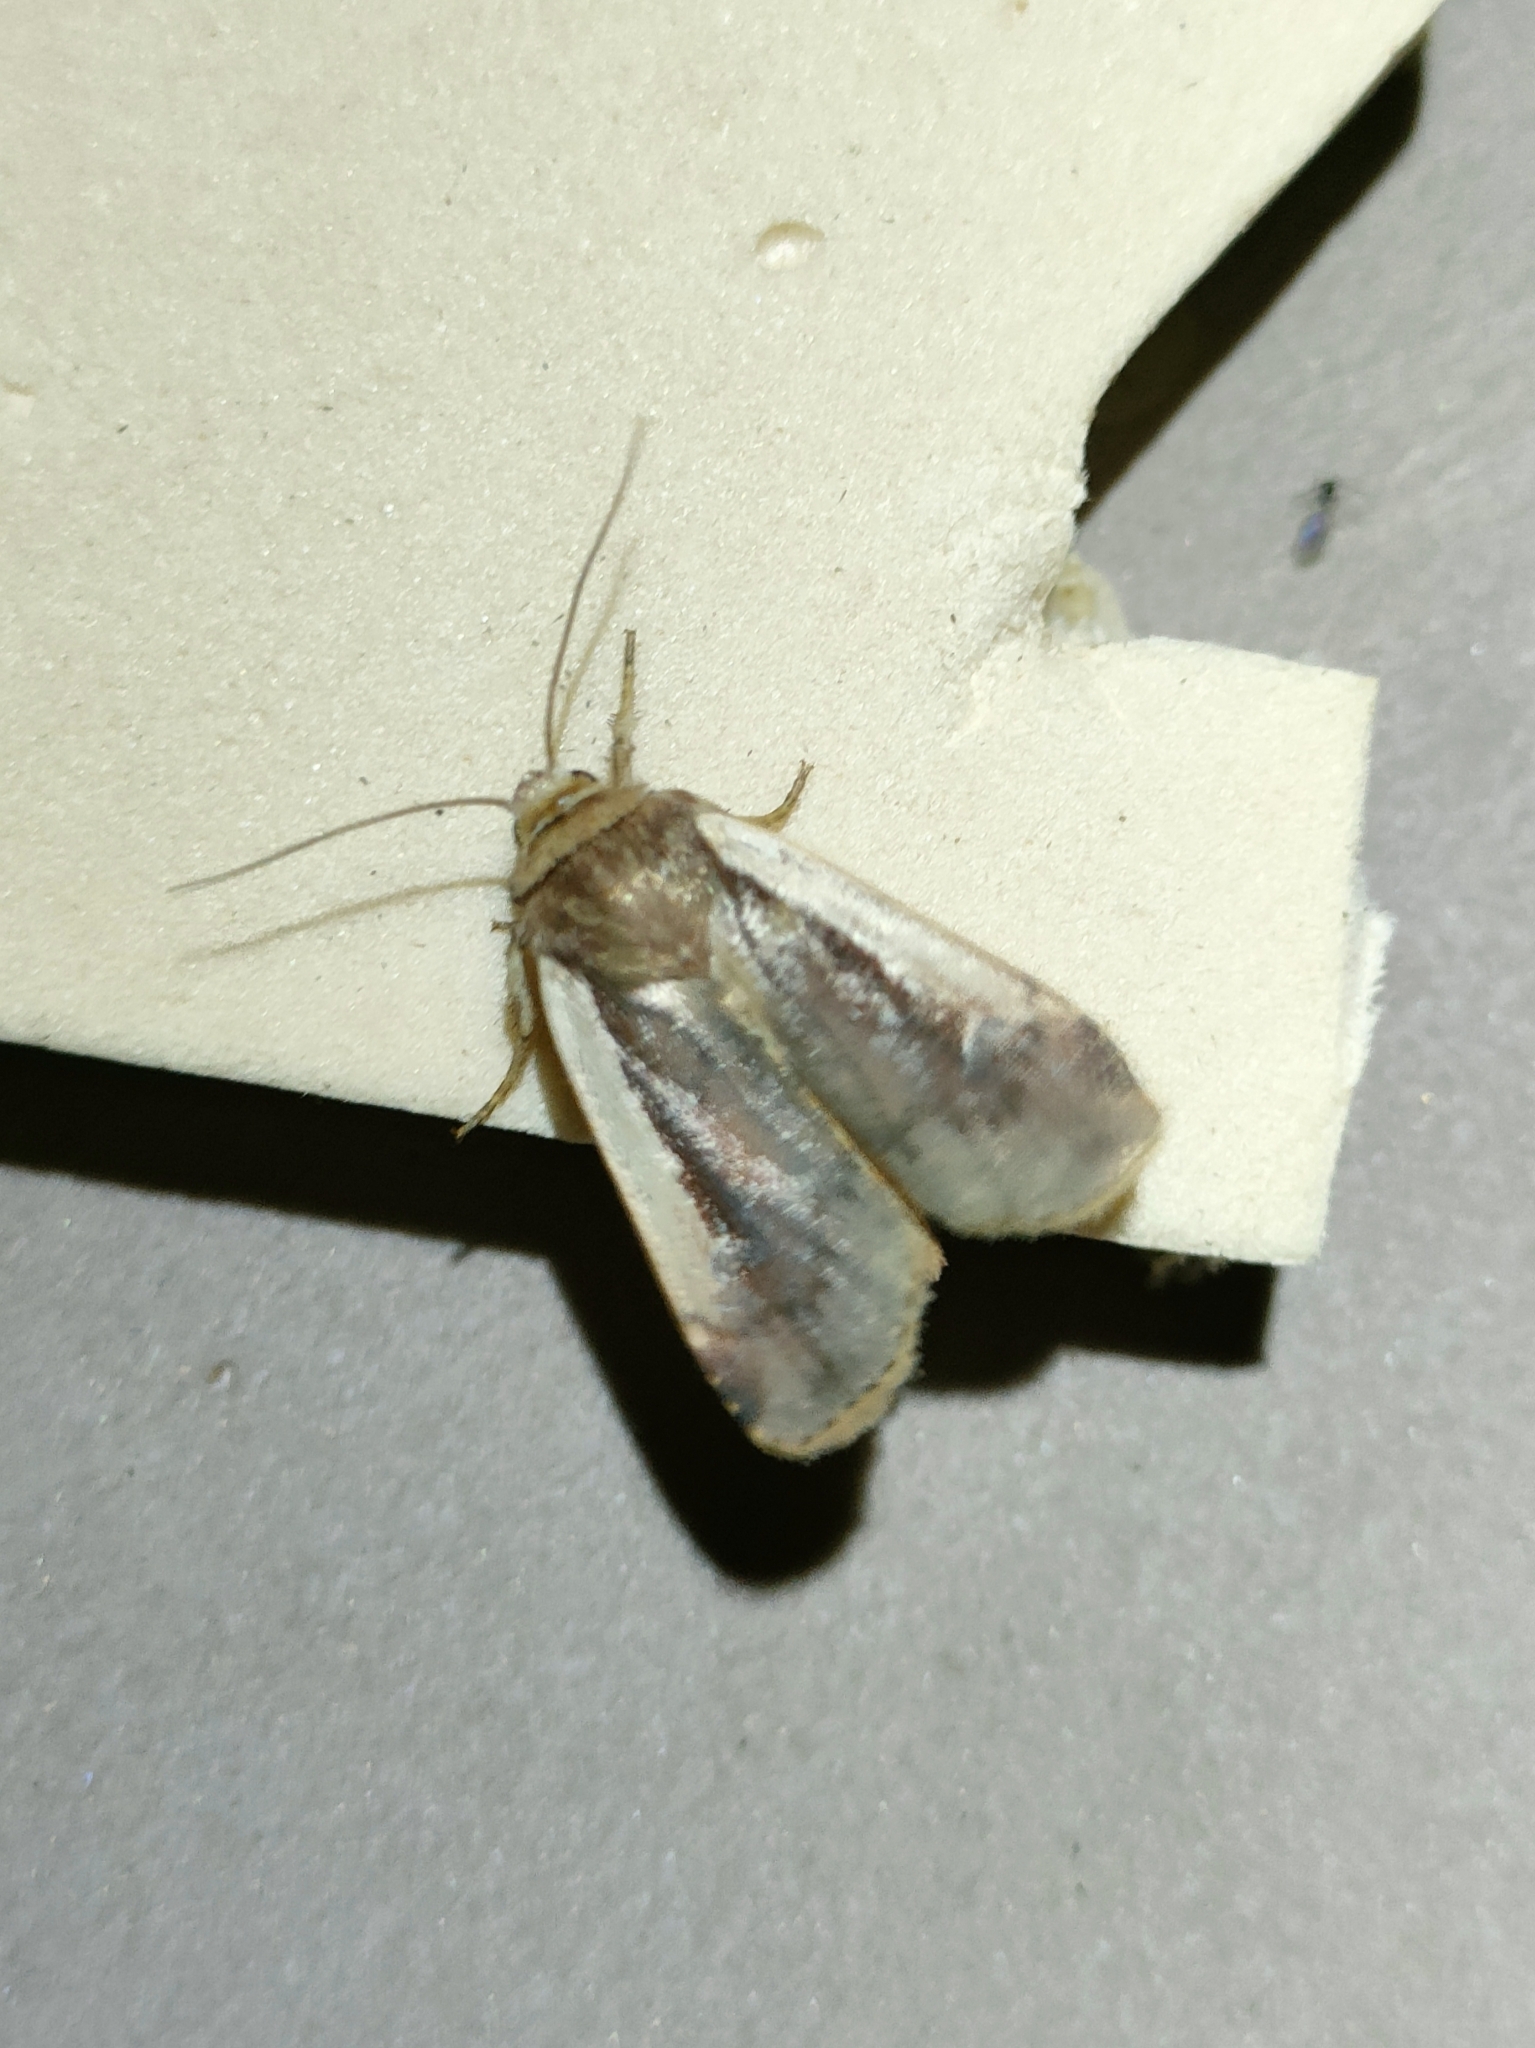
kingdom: Animalia
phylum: Arthropoda
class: Insecta
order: Lepidoptera
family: Noctuidae
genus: Ochropleura
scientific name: Ochropleura plecta
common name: Flame shoulder
